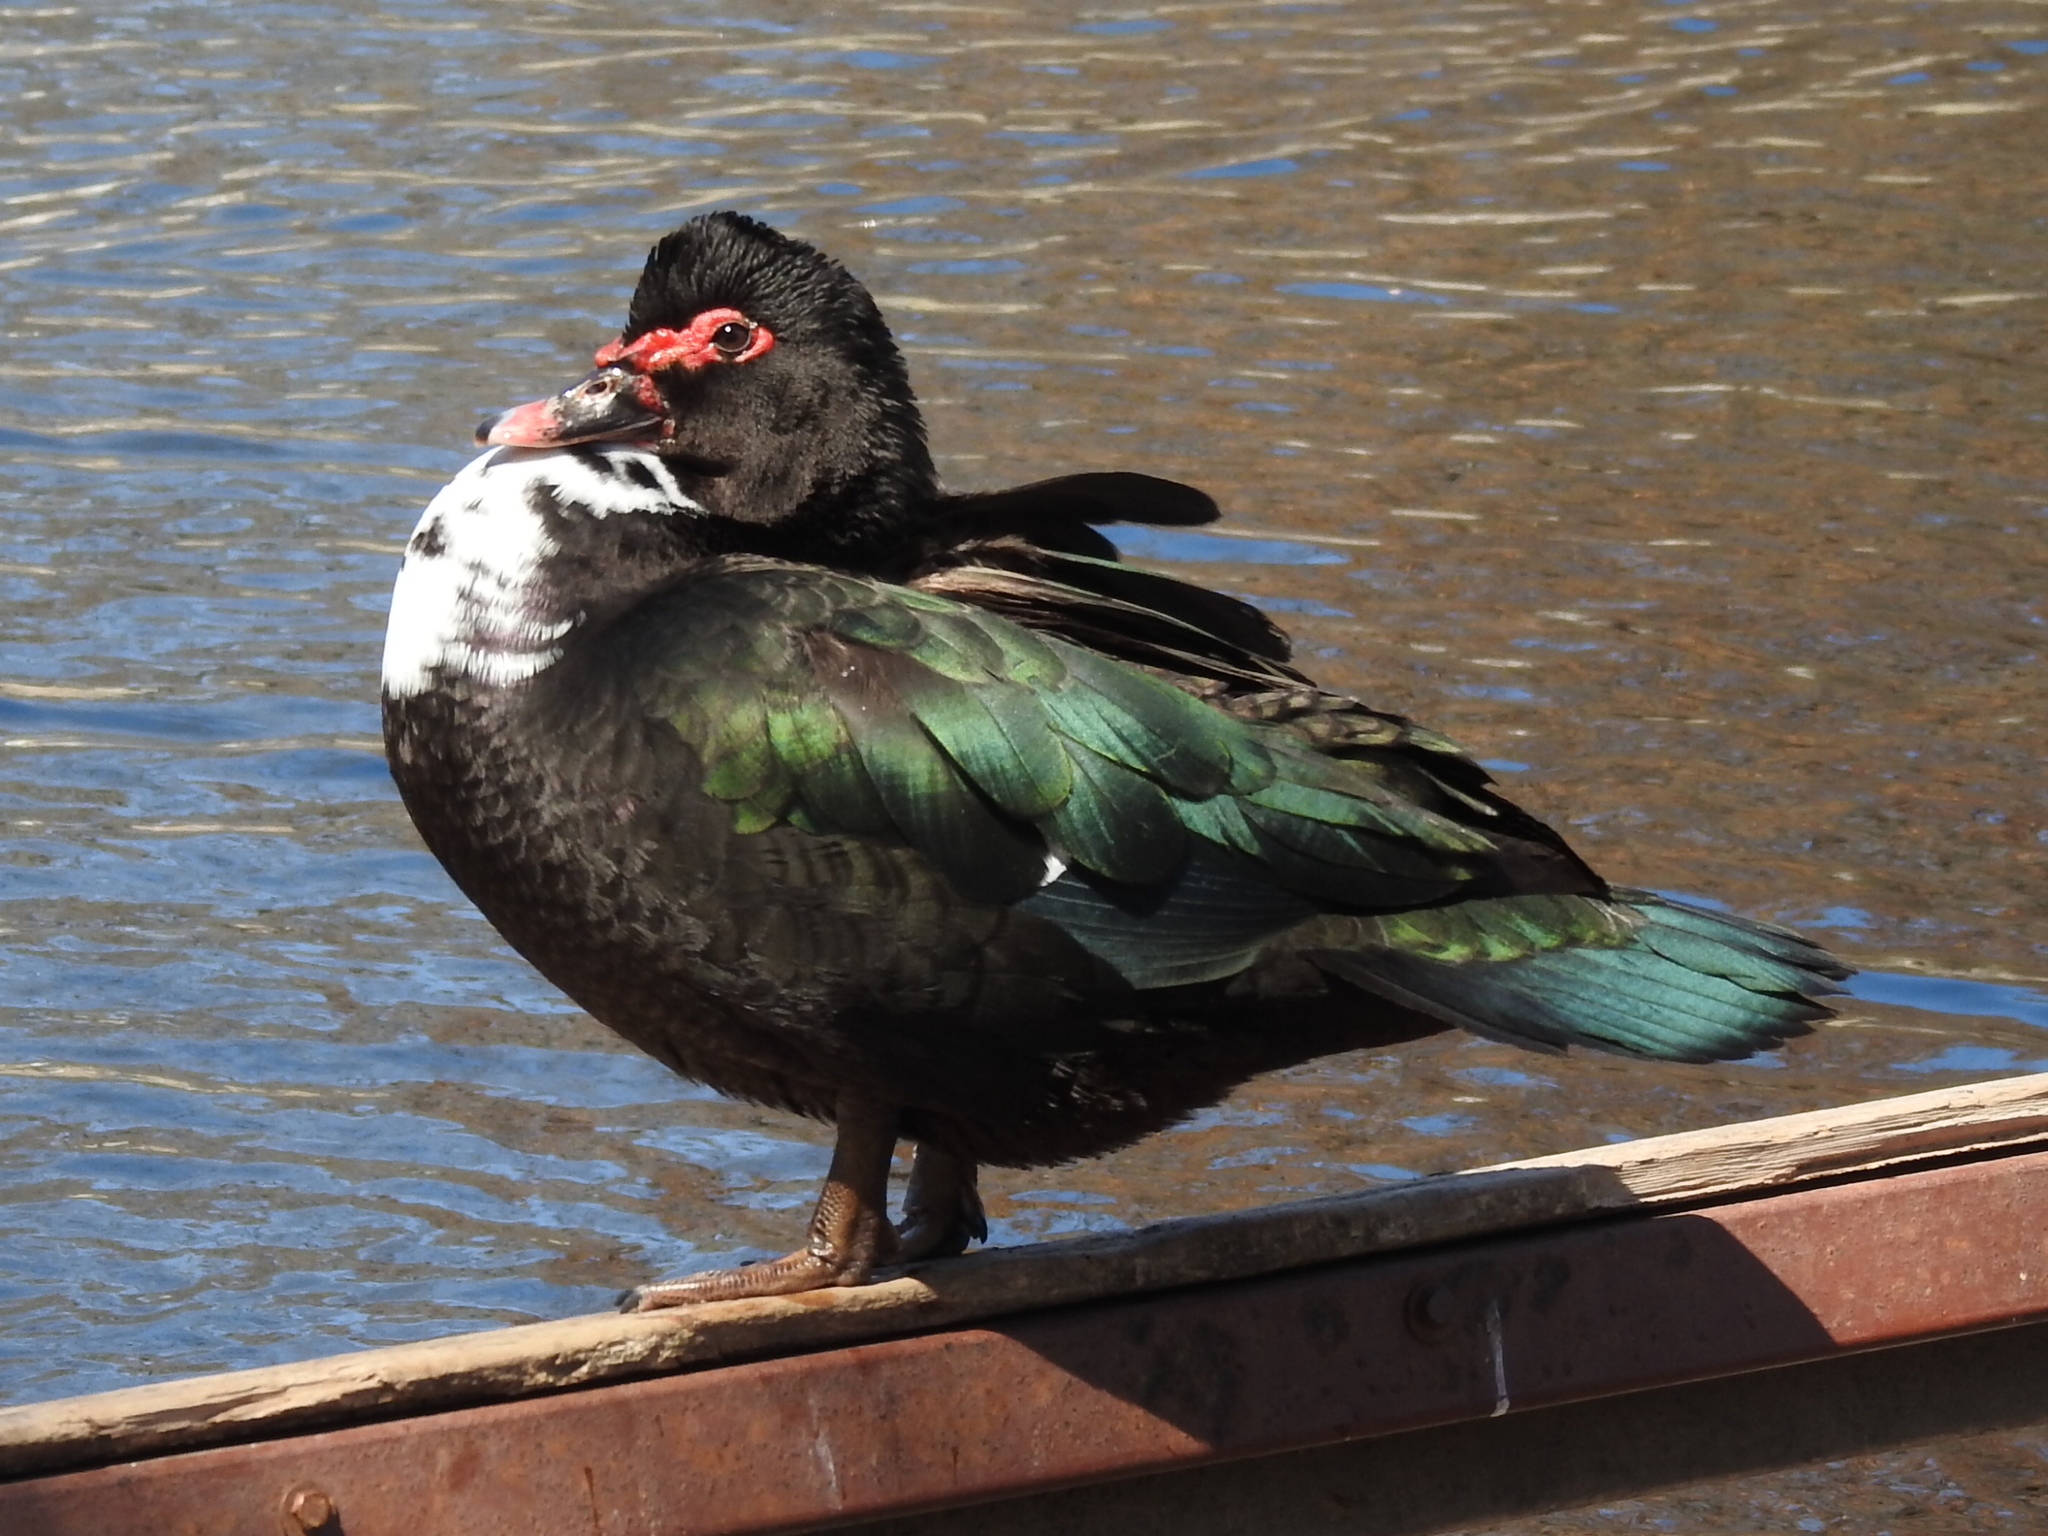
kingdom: Animalia
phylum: Chordata
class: Aves
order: Anseriformes
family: Anatidae
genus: Cairina
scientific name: Cairina moschata
